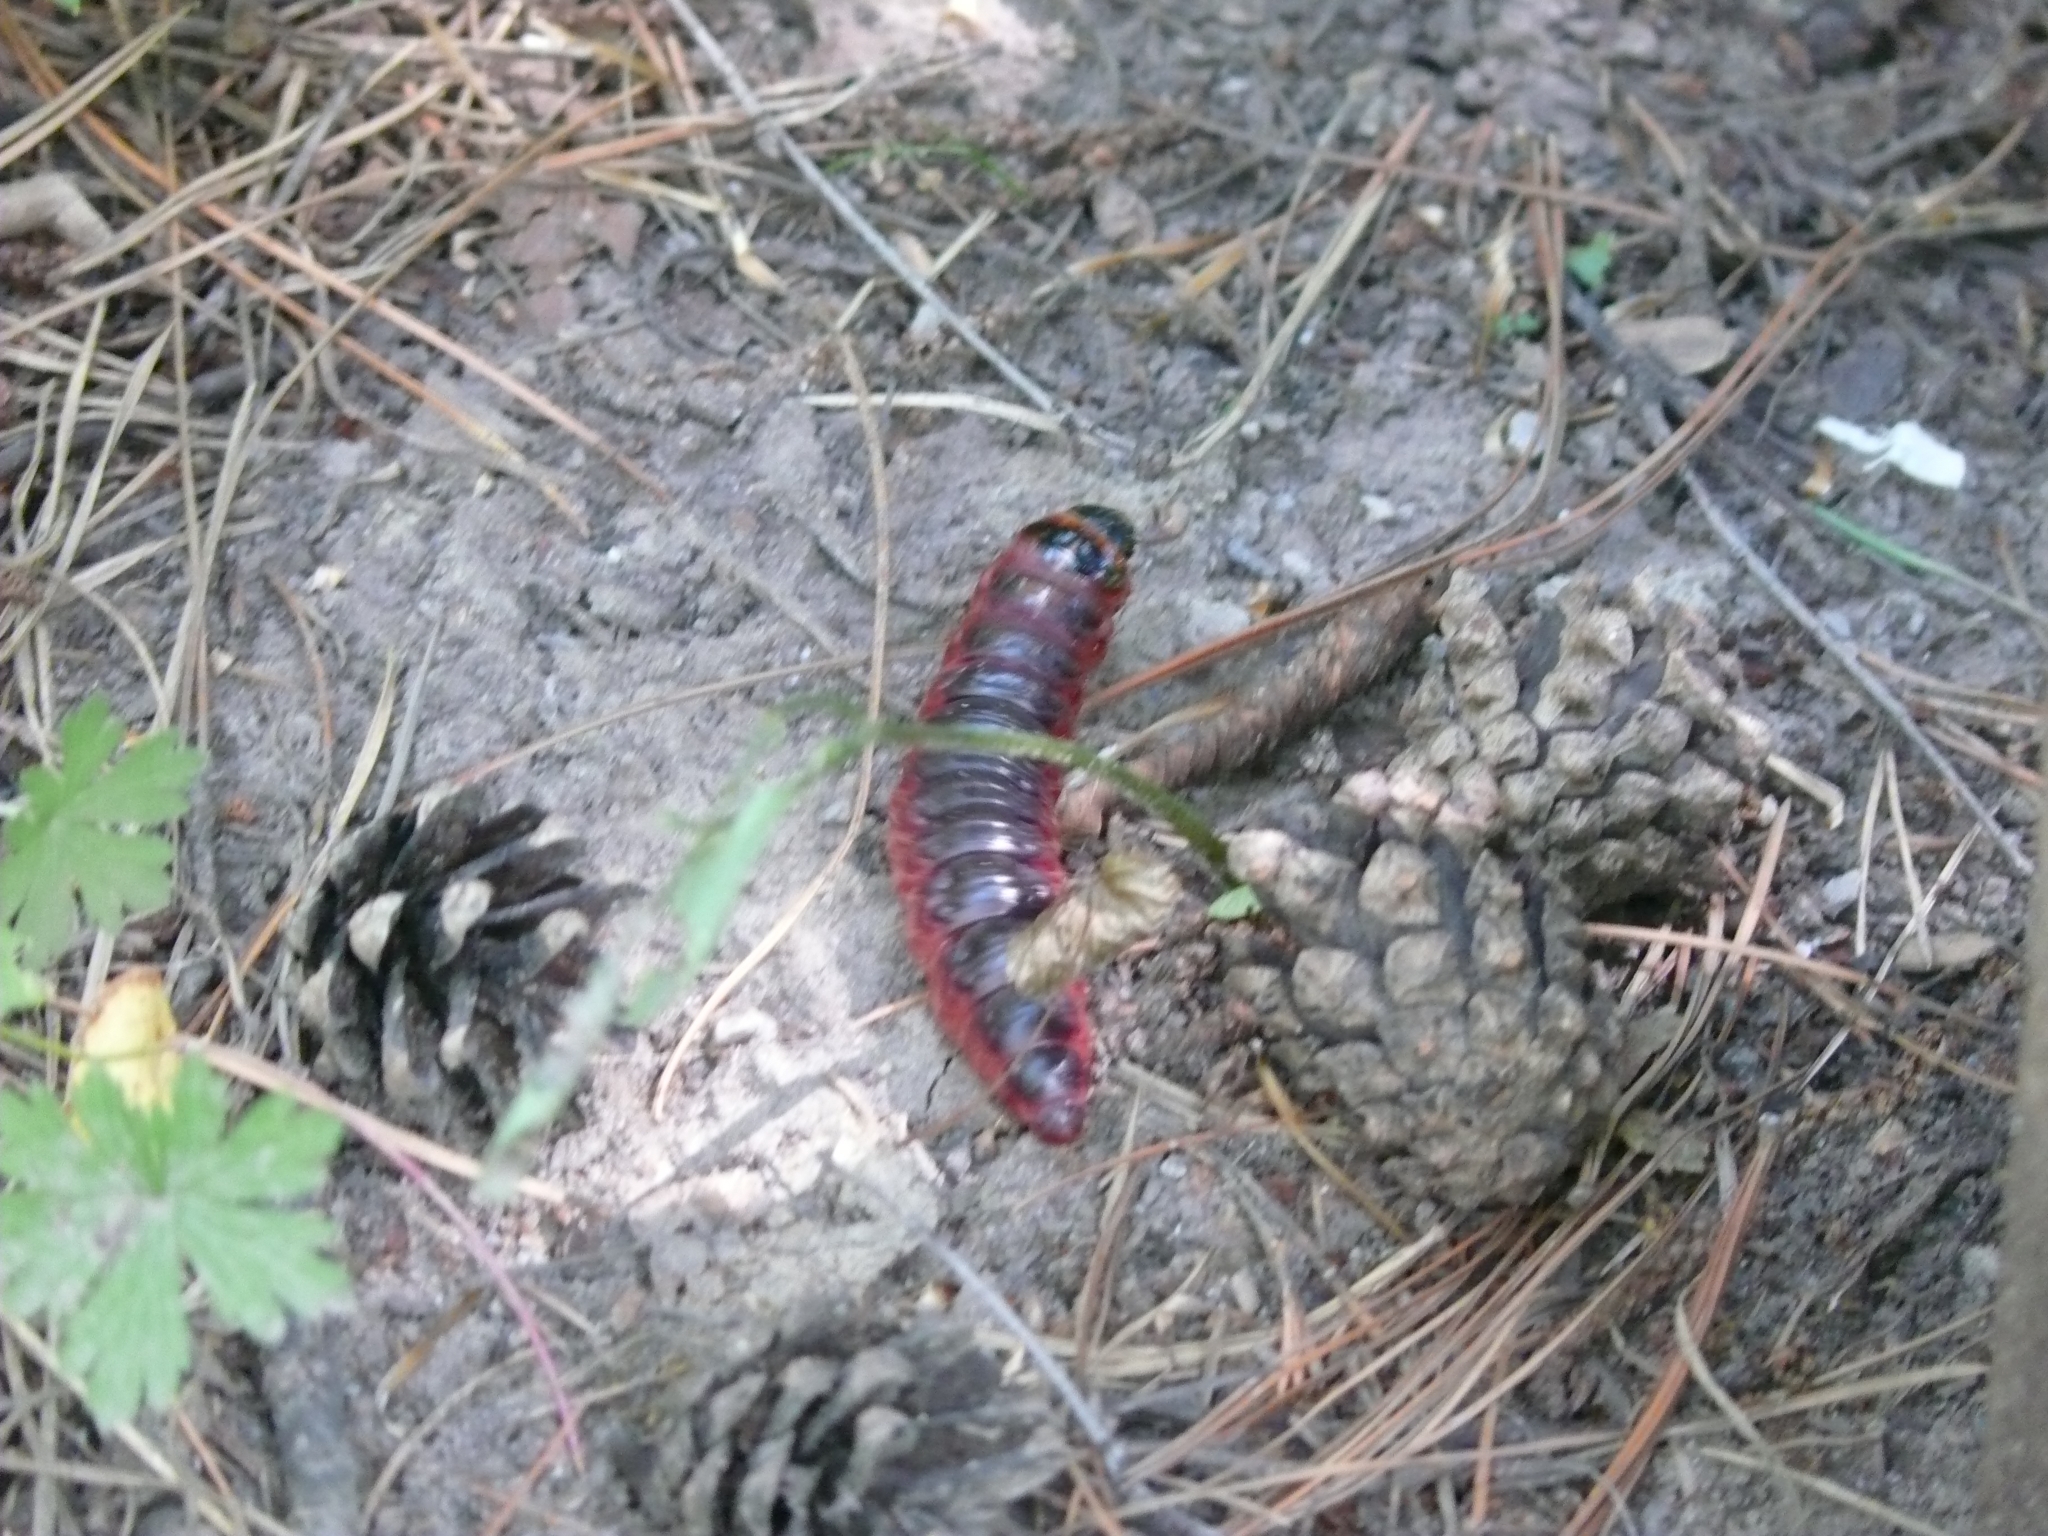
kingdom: Animalia
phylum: Arthropoda
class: Insecta
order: Lepidoptera
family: Cossidae
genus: Cossus
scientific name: Cossus cossus
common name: Goat moth
